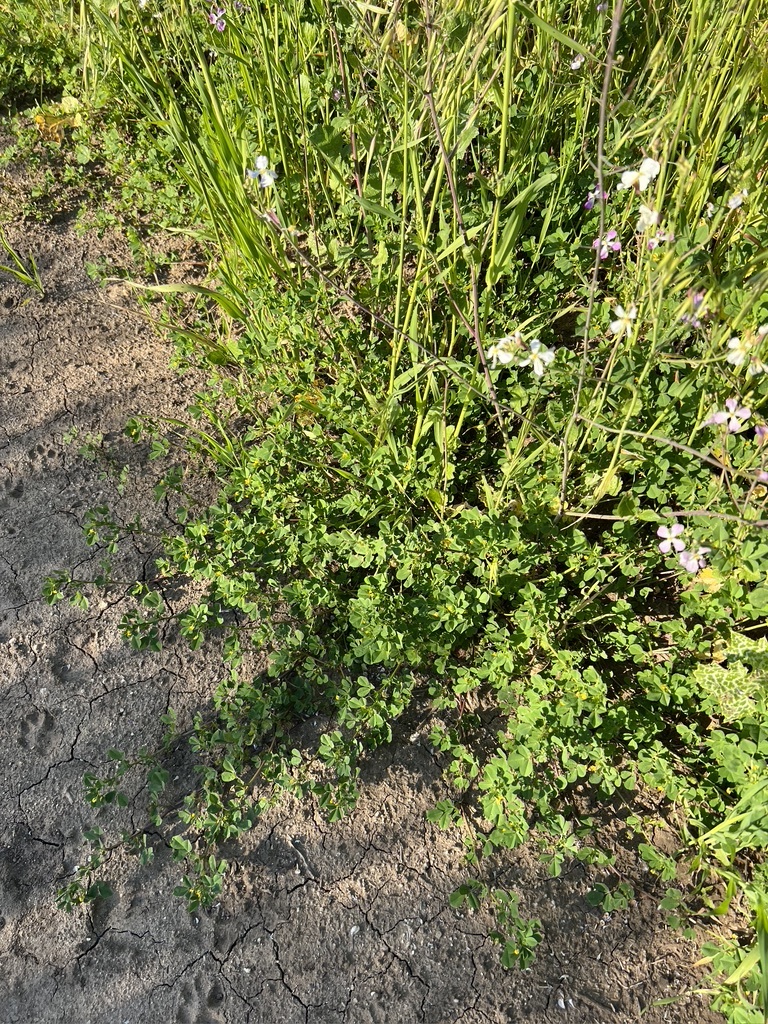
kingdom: Plantae
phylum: Tracheophyta
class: Magnoliopsida
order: Fabales
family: Fabaceae
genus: Medicago
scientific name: Medicago polymorpha
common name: Burclover
